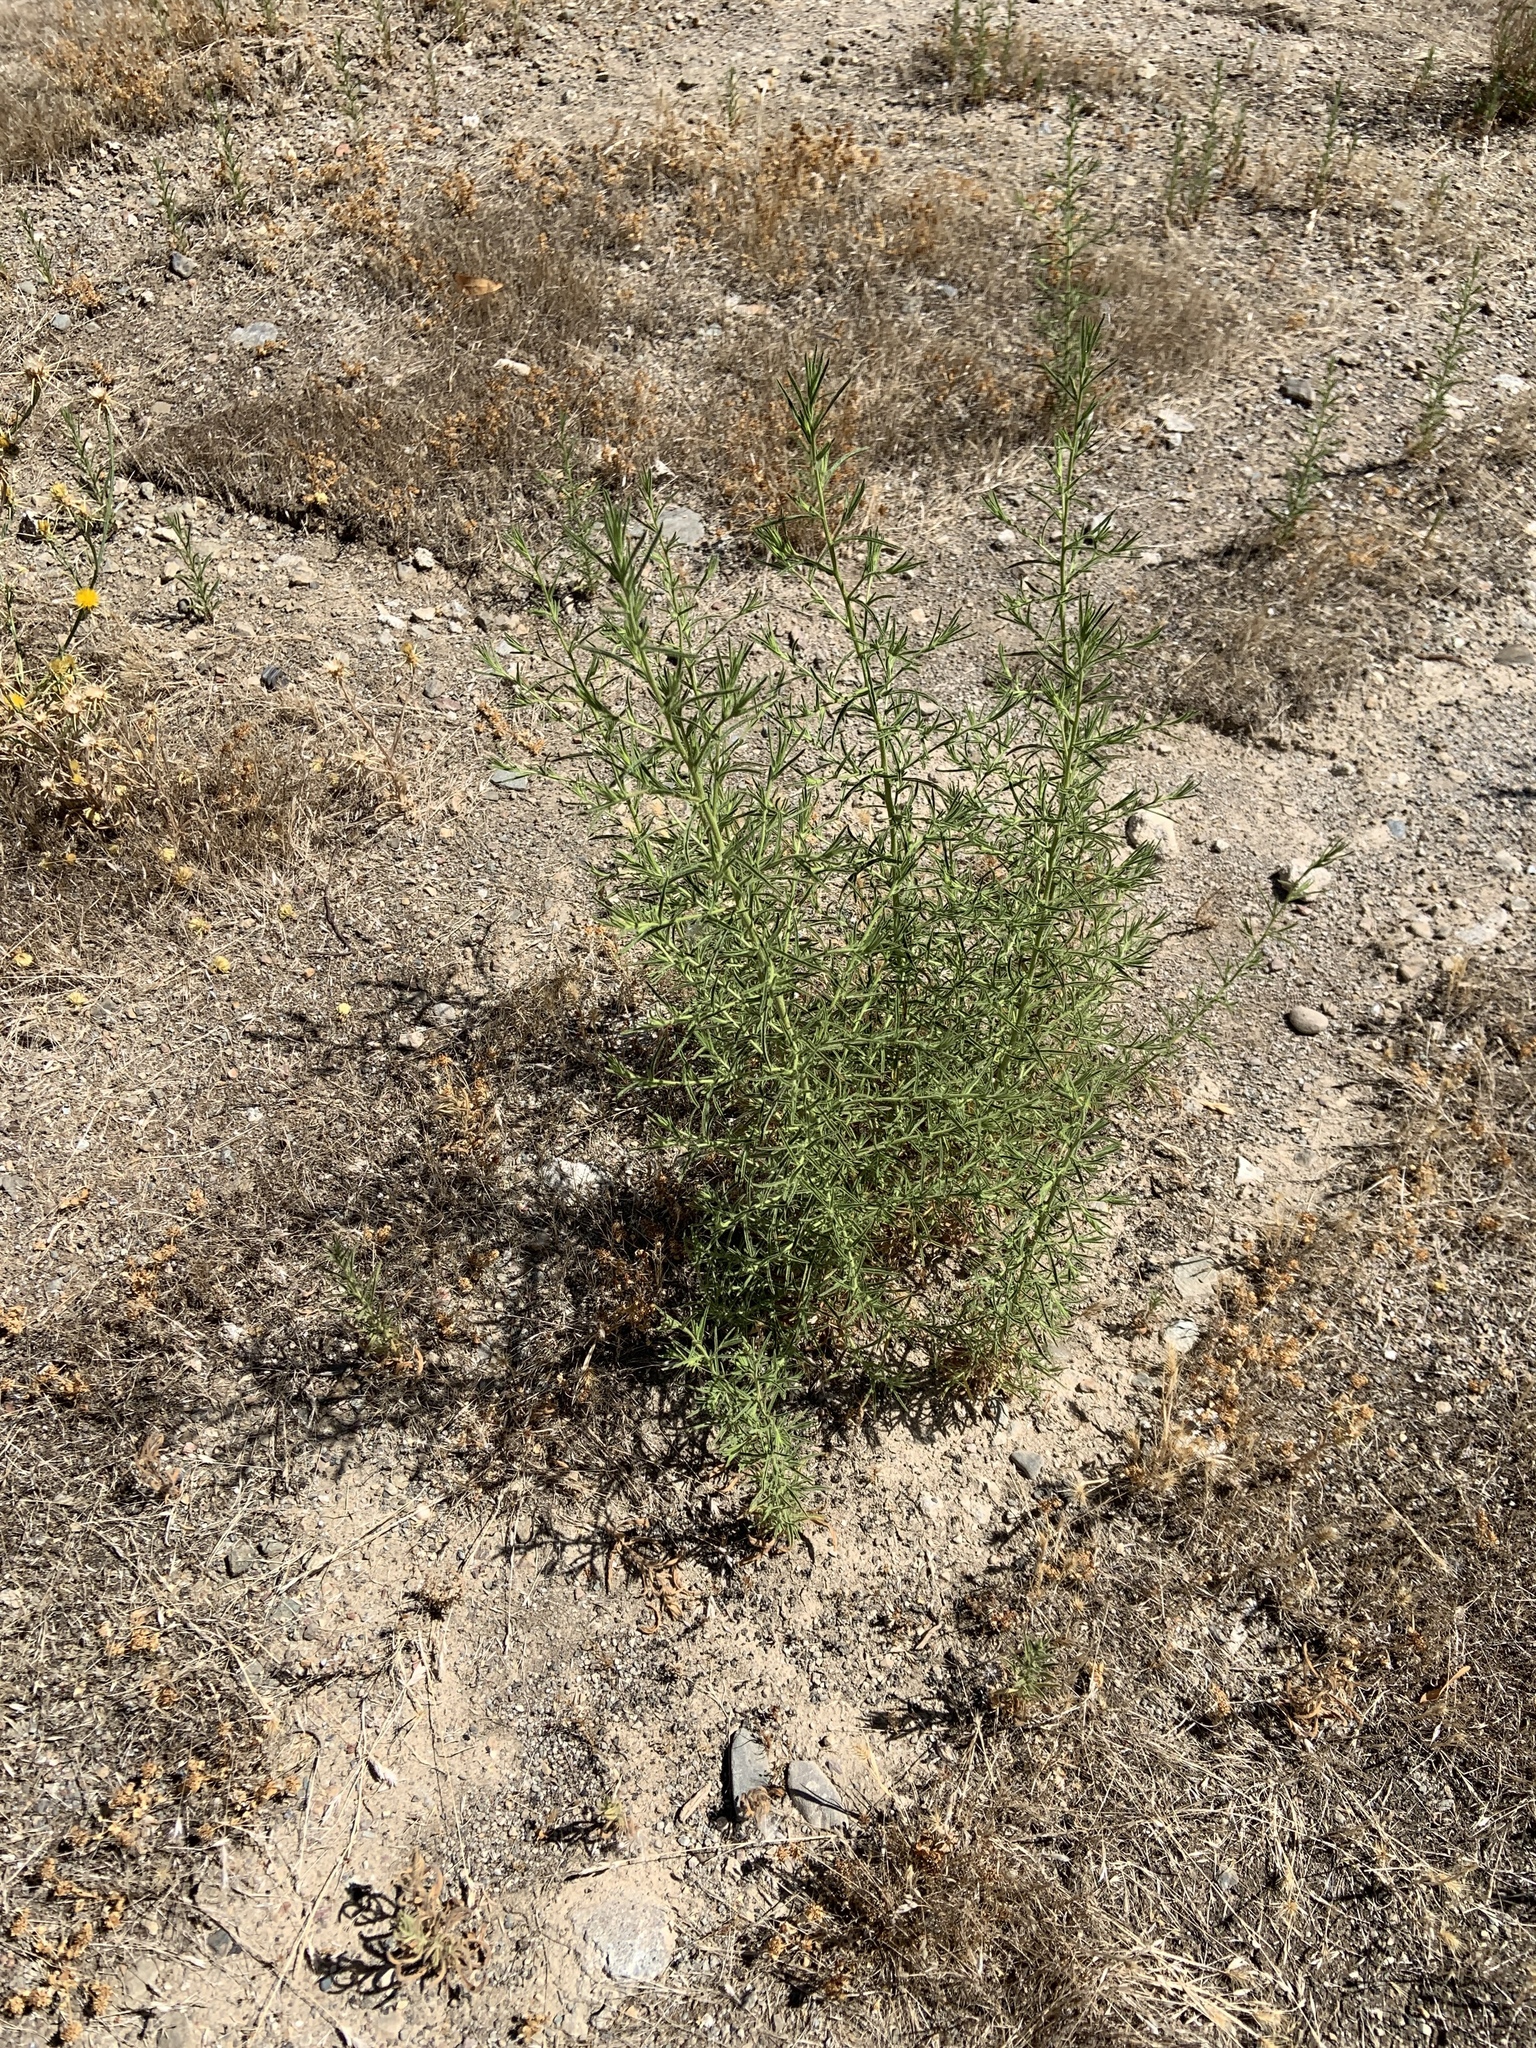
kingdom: Plantae
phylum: Tracheophyta
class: Magnoliopsida
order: Asterales
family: Asteraceae
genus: Dittrichia
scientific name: Dittrichia graveolens
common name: Stinking fleabane
